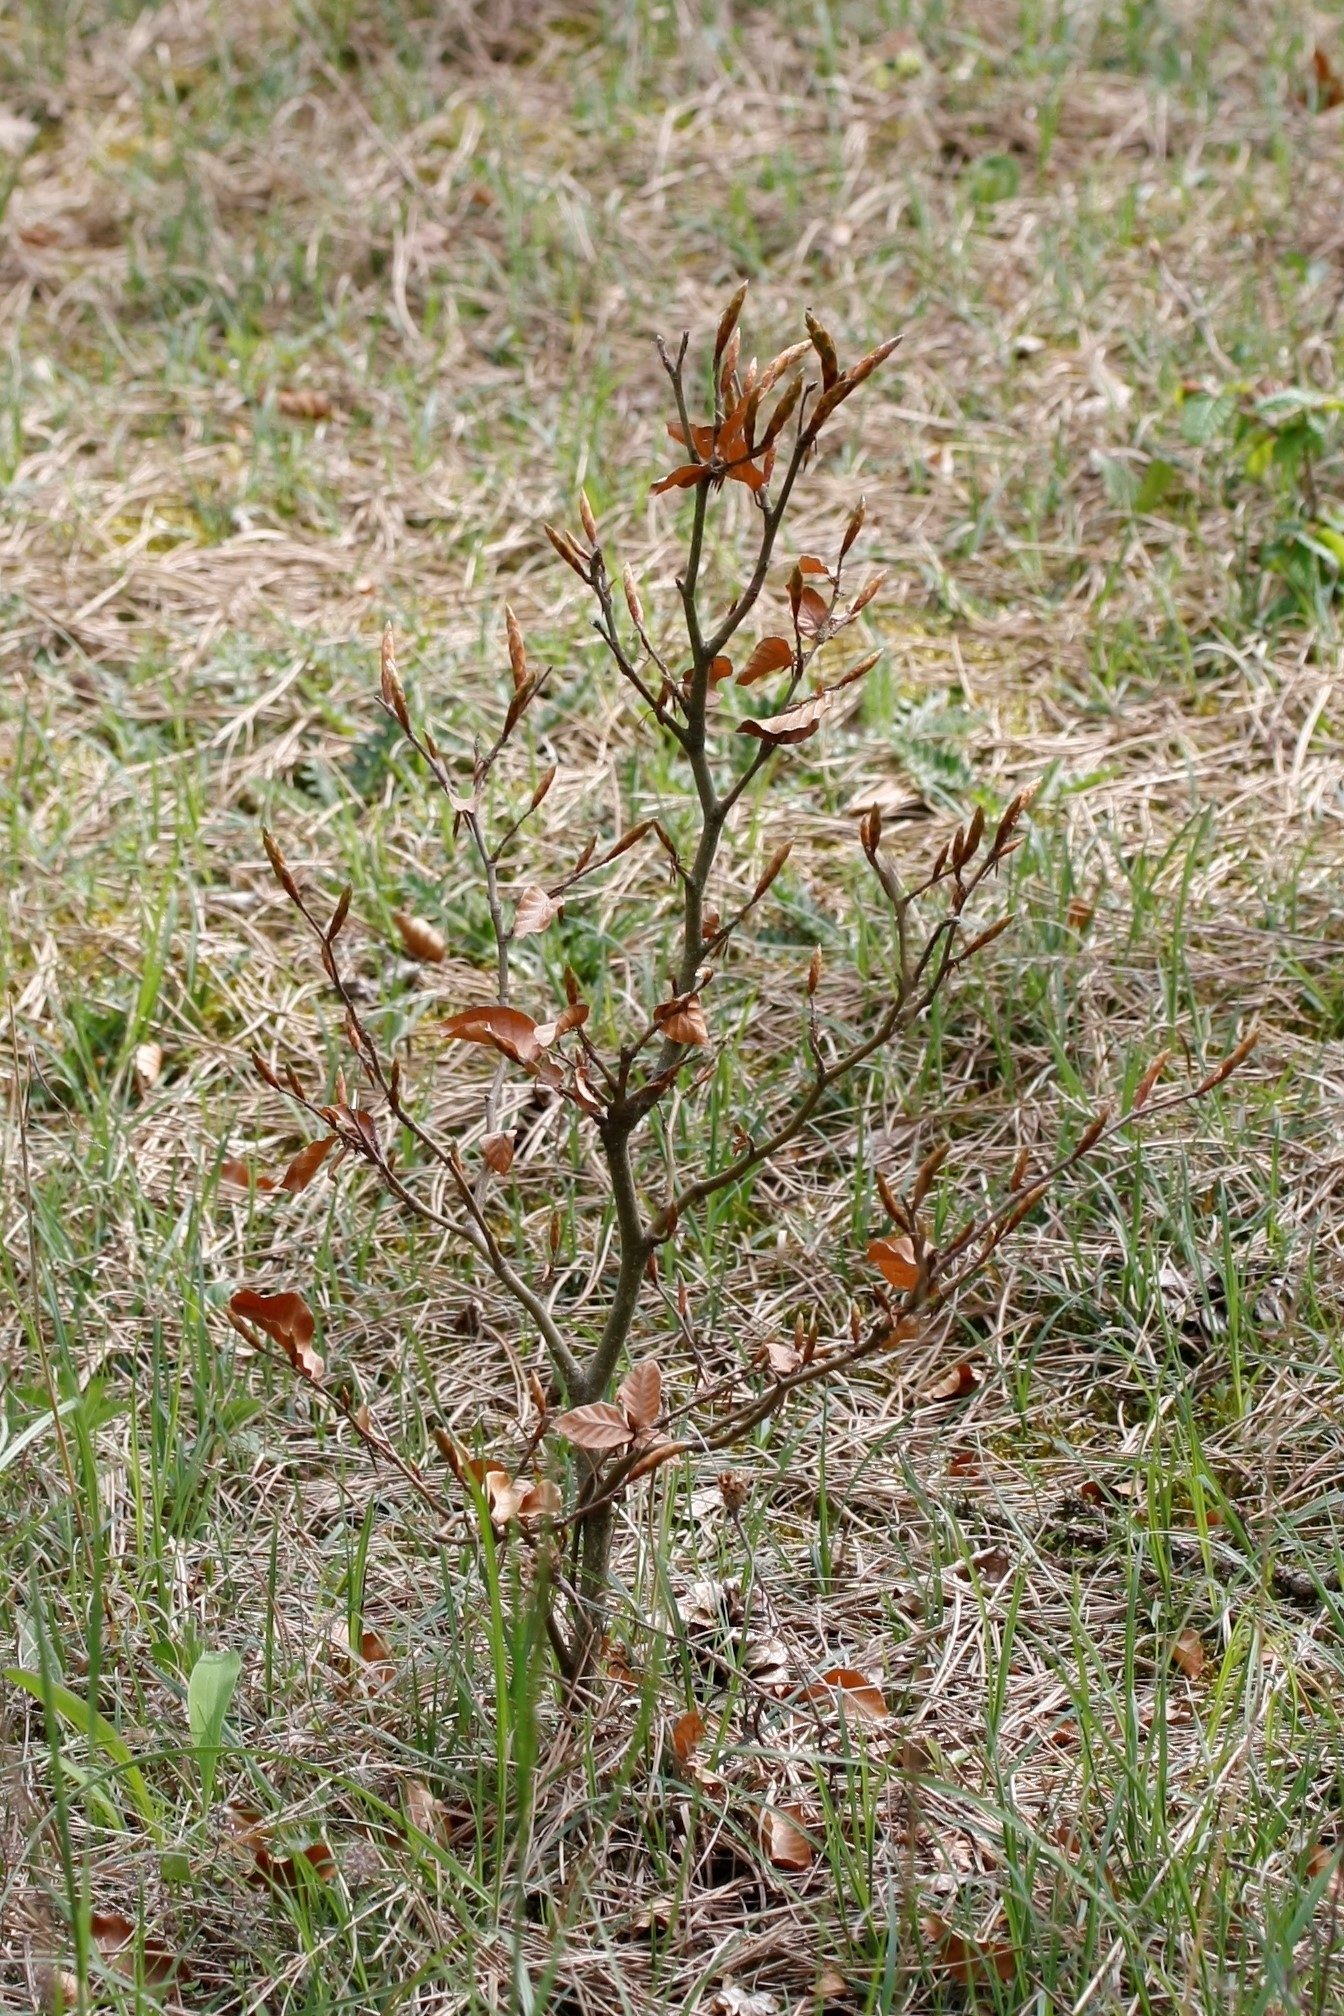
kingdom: Plantae
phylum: Tracheophyta
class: Magnoliopsida
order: Fagales
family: Fagaceae
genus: Fagus
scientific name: Fagus sylvatica
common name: Beech
